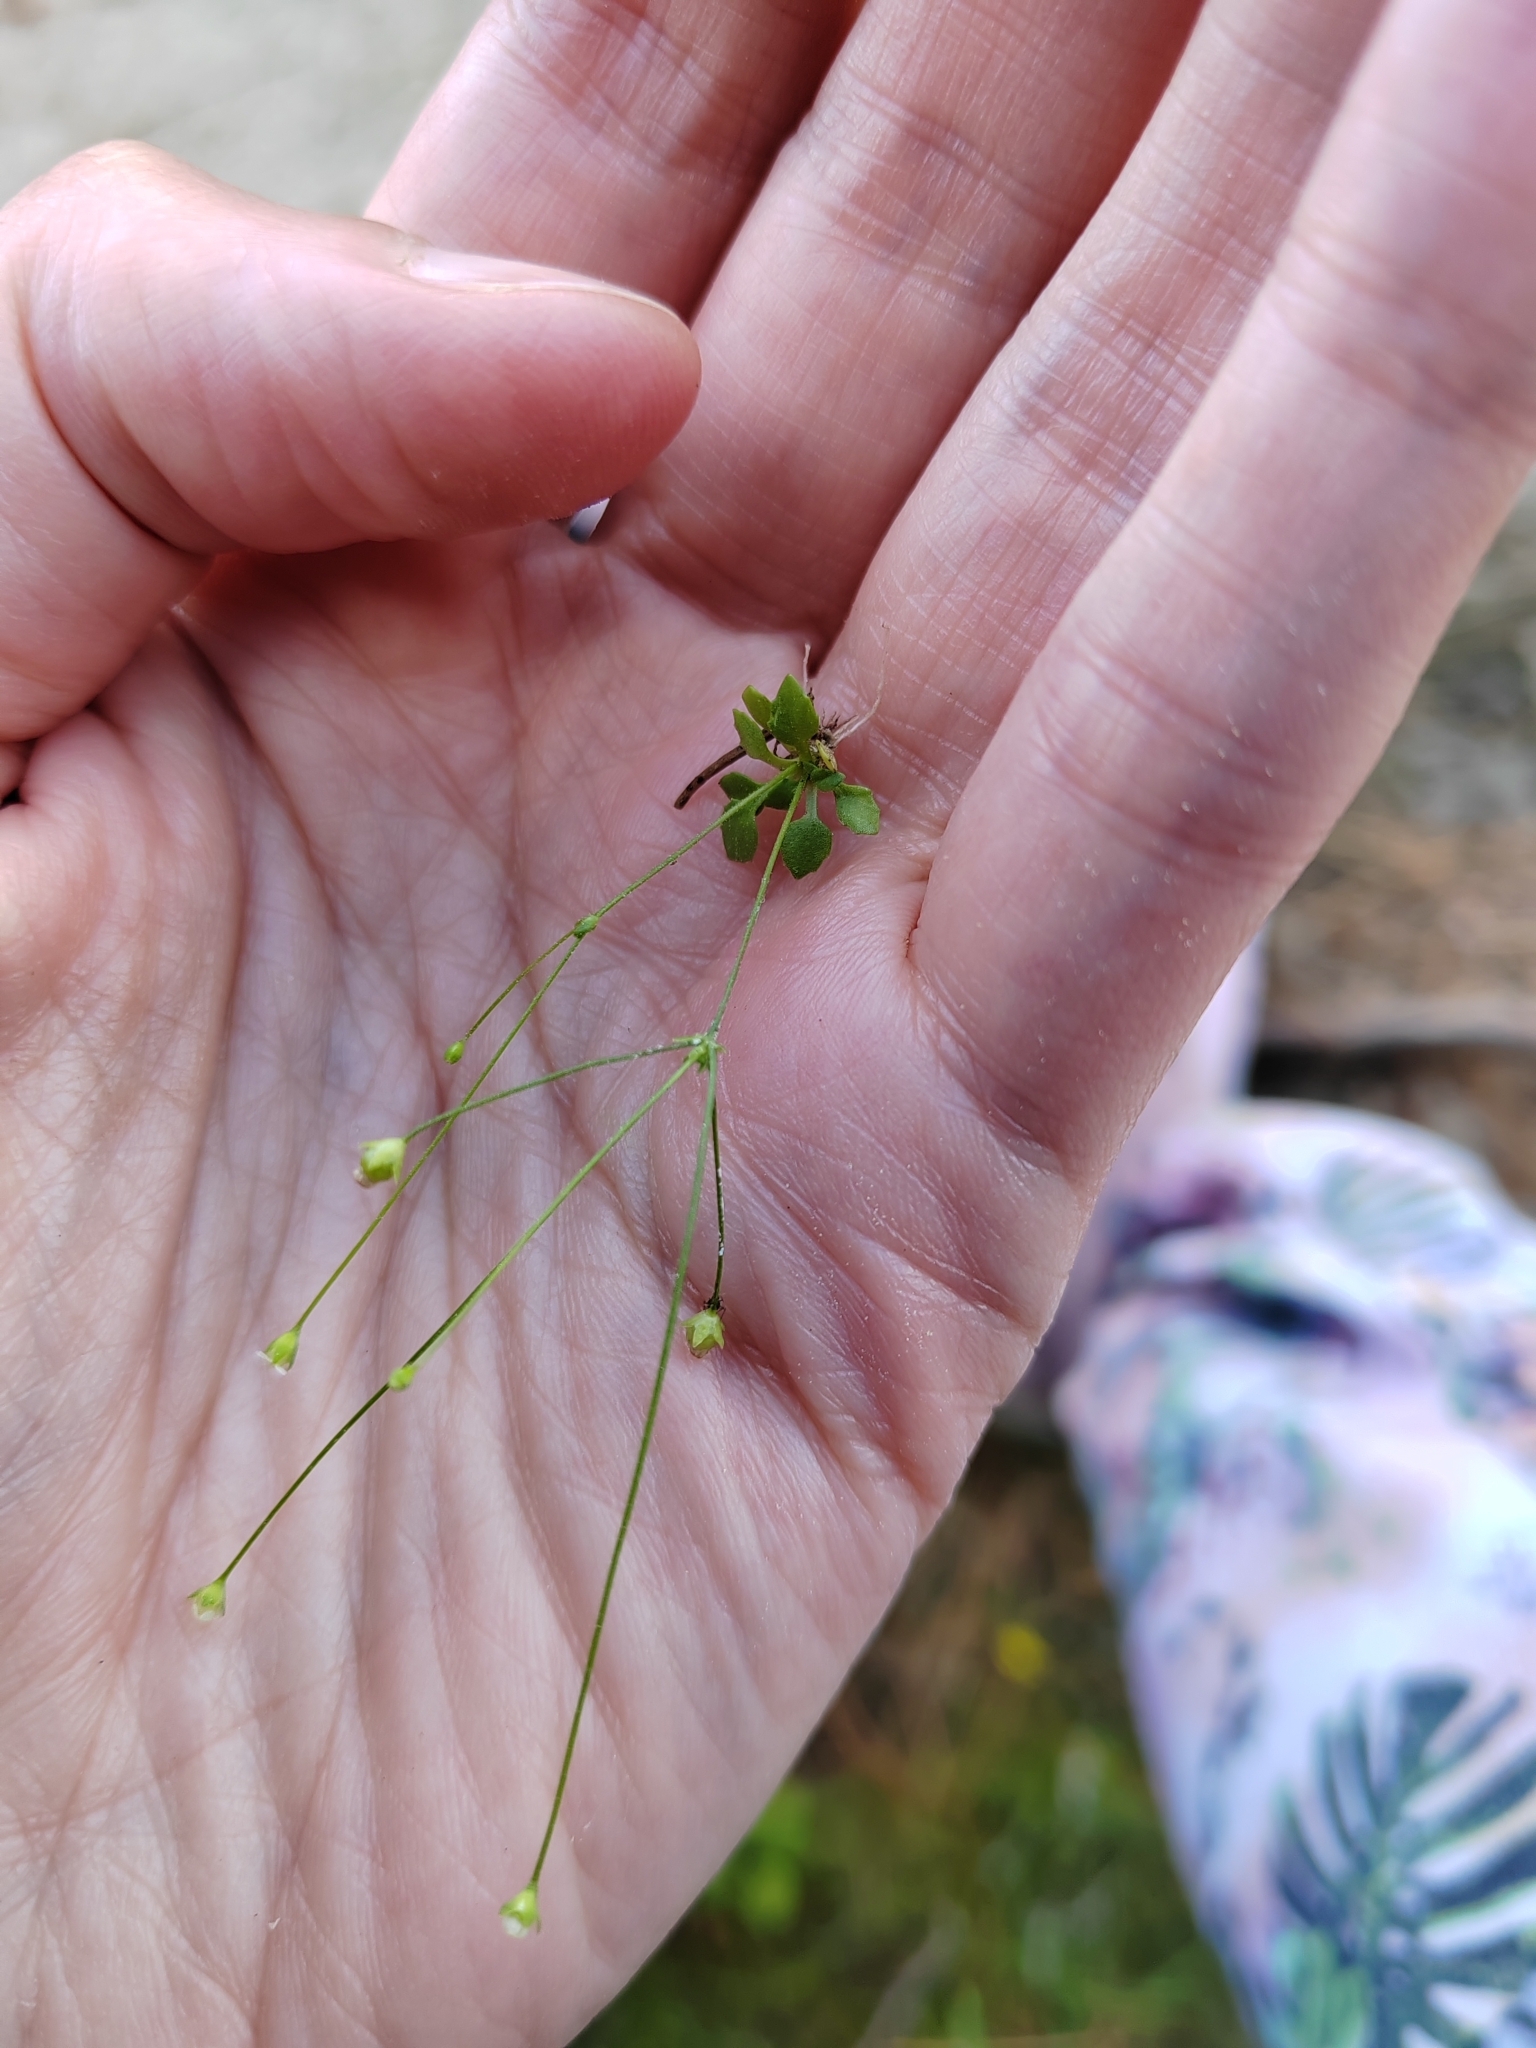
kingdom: Plantae
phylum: Tracheophyta
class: Magnoliopsida
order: Ericales
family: Primulaceae
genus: Androsace
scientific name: Androsace filiformis
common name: Filiform rock jasmine
